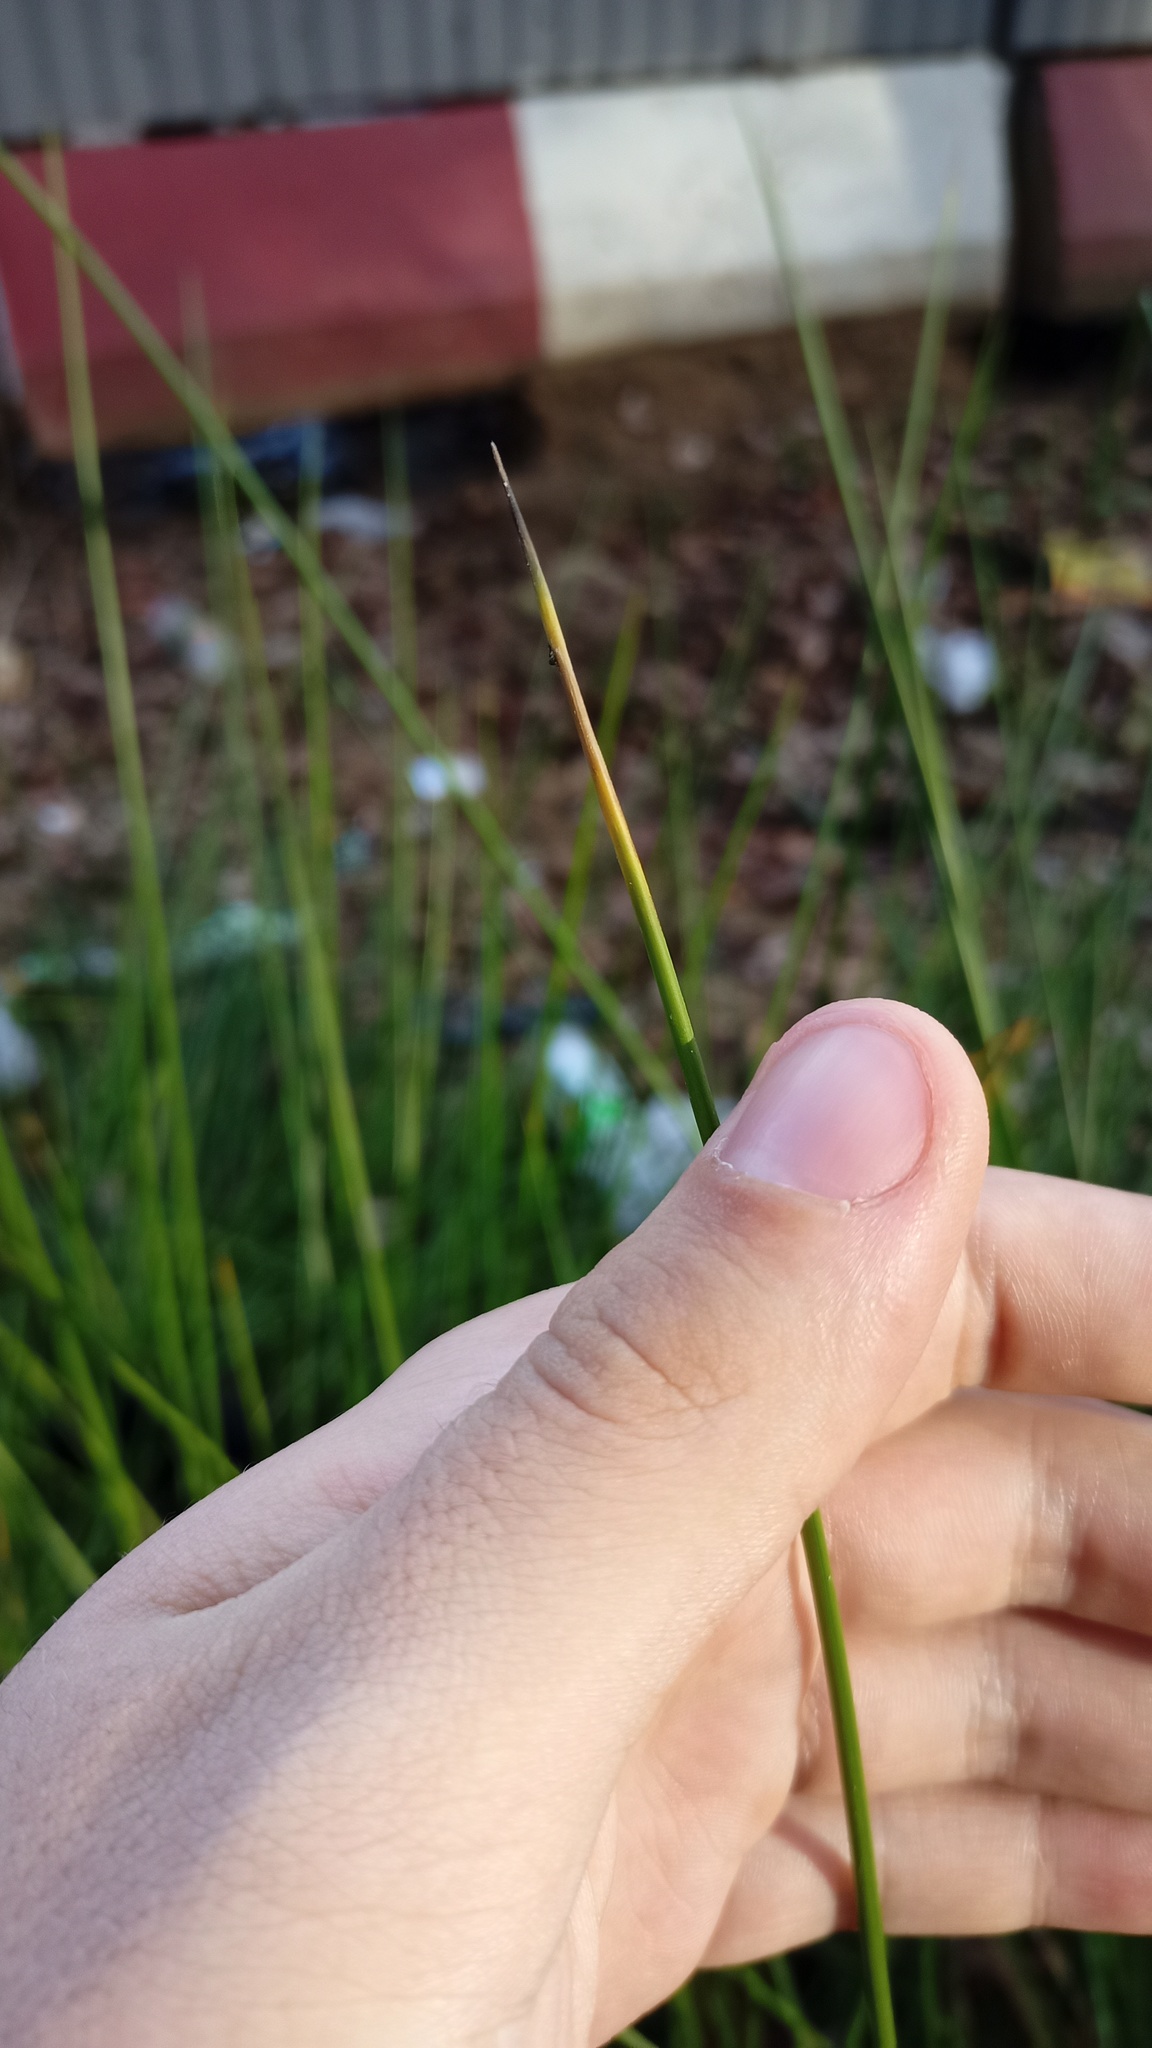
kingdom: Plantae
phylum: Tracheophyta
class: Liliopsida
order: Poales
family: Juncaceae
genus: Juncus
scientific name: Juncus effusus
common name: Soft rush
